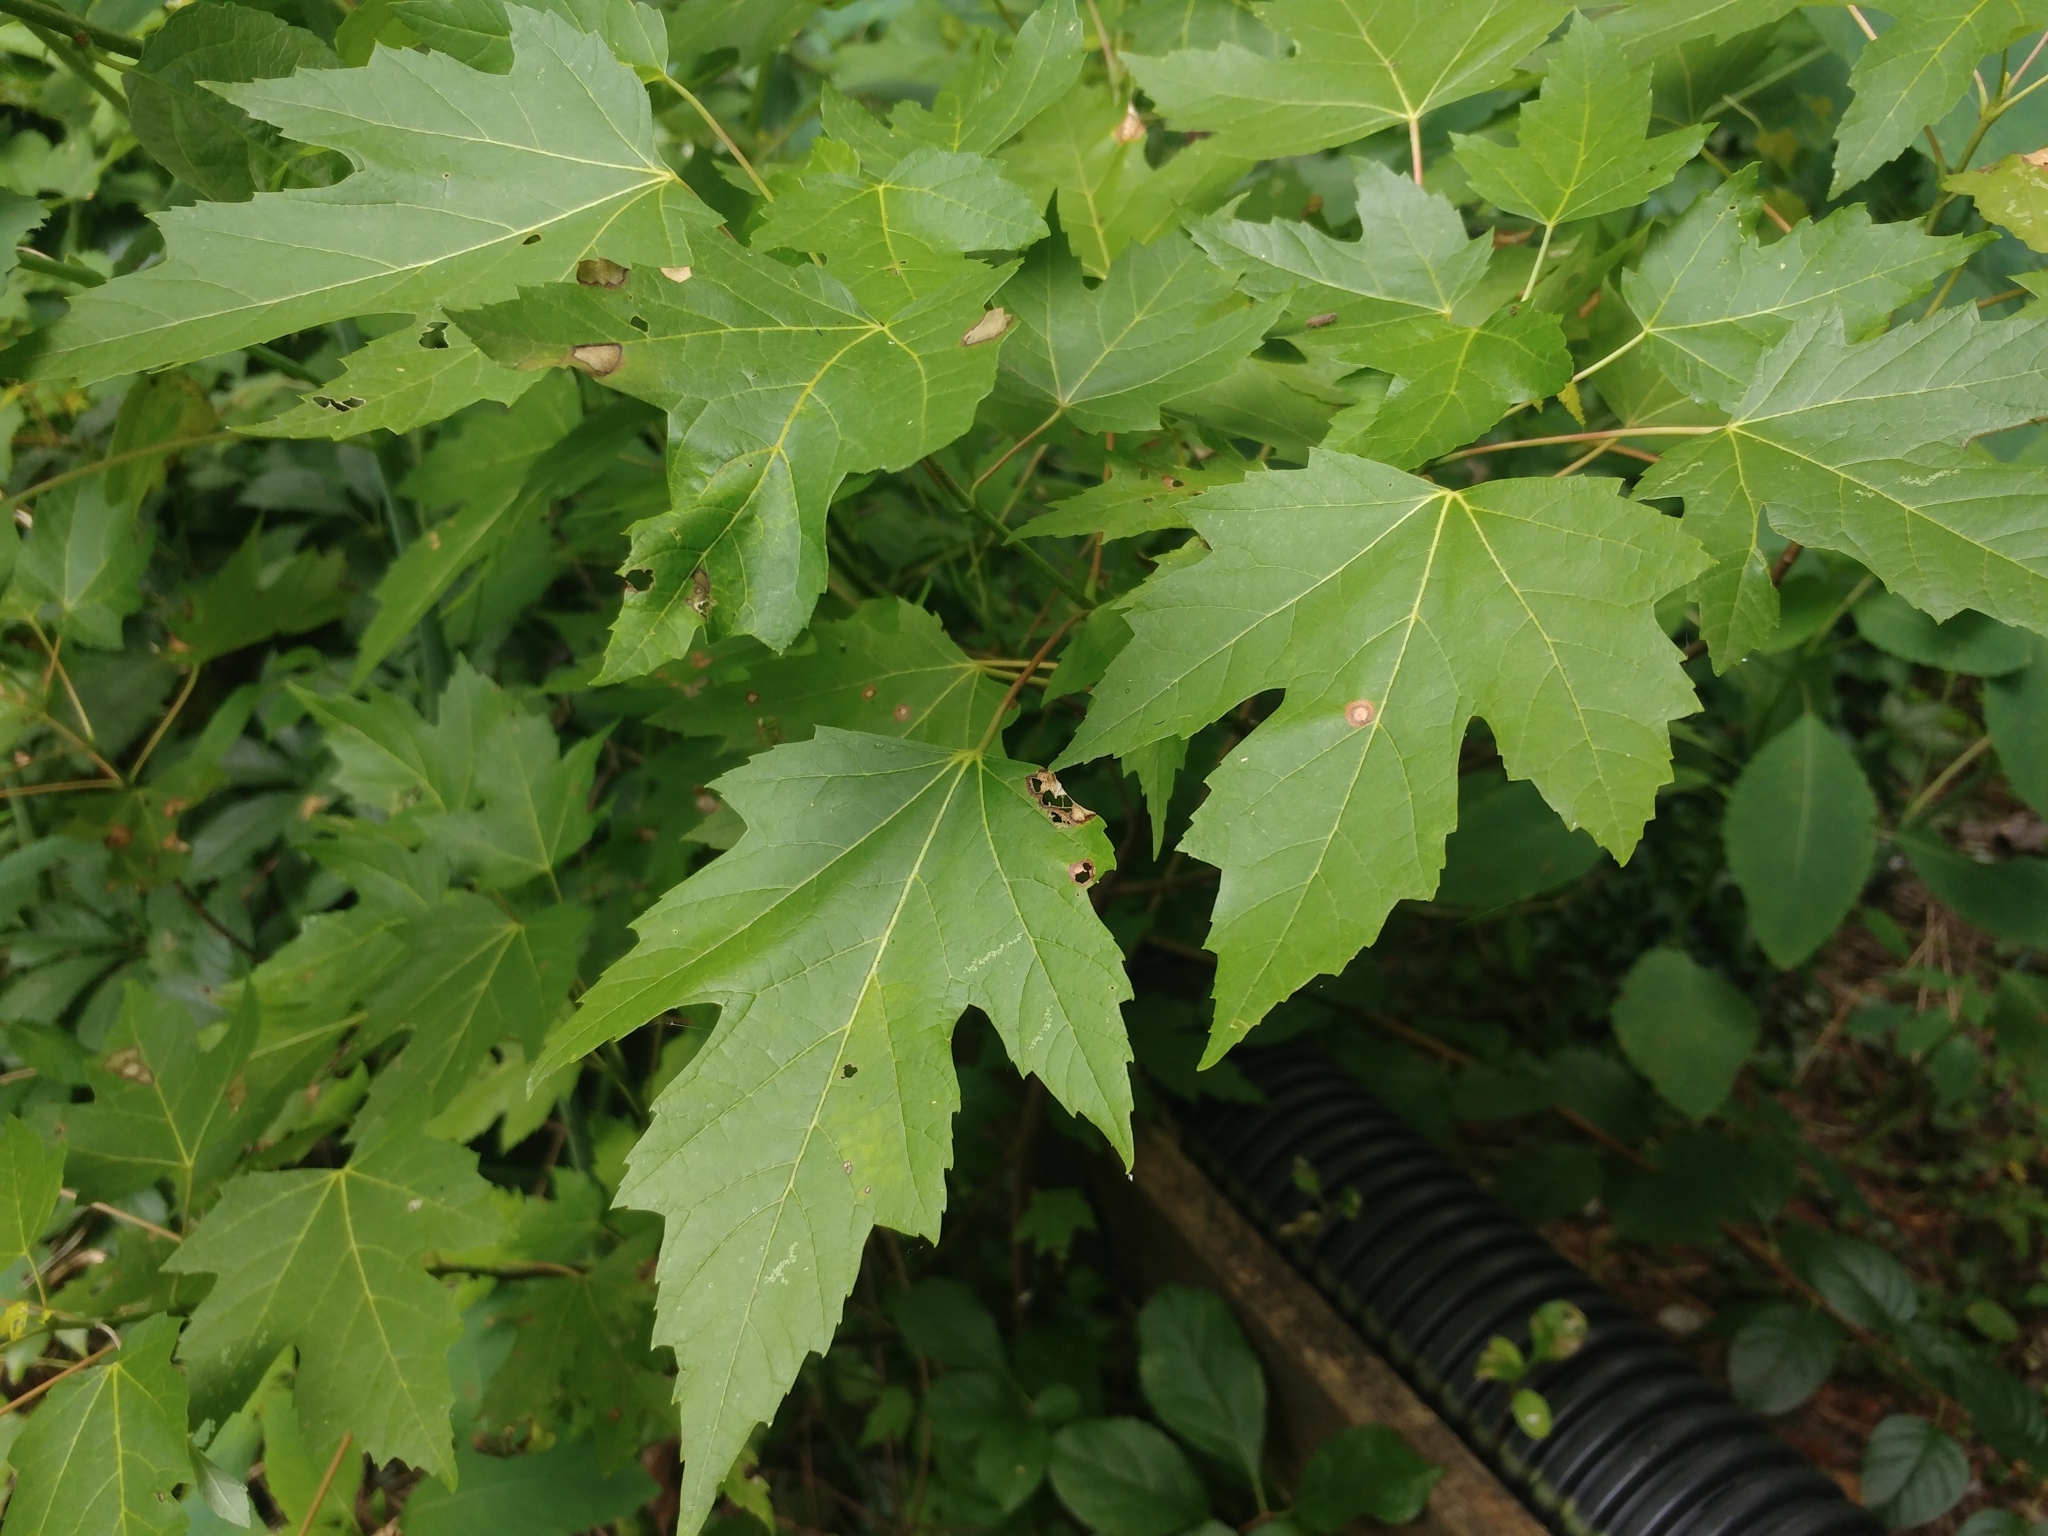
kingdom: Plantae
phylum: Tracheophyta
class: Magnoliopsida
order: Sapindales
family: Sapindaceae
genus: Acer
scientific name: Acer saccharinum
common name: Silver maple
